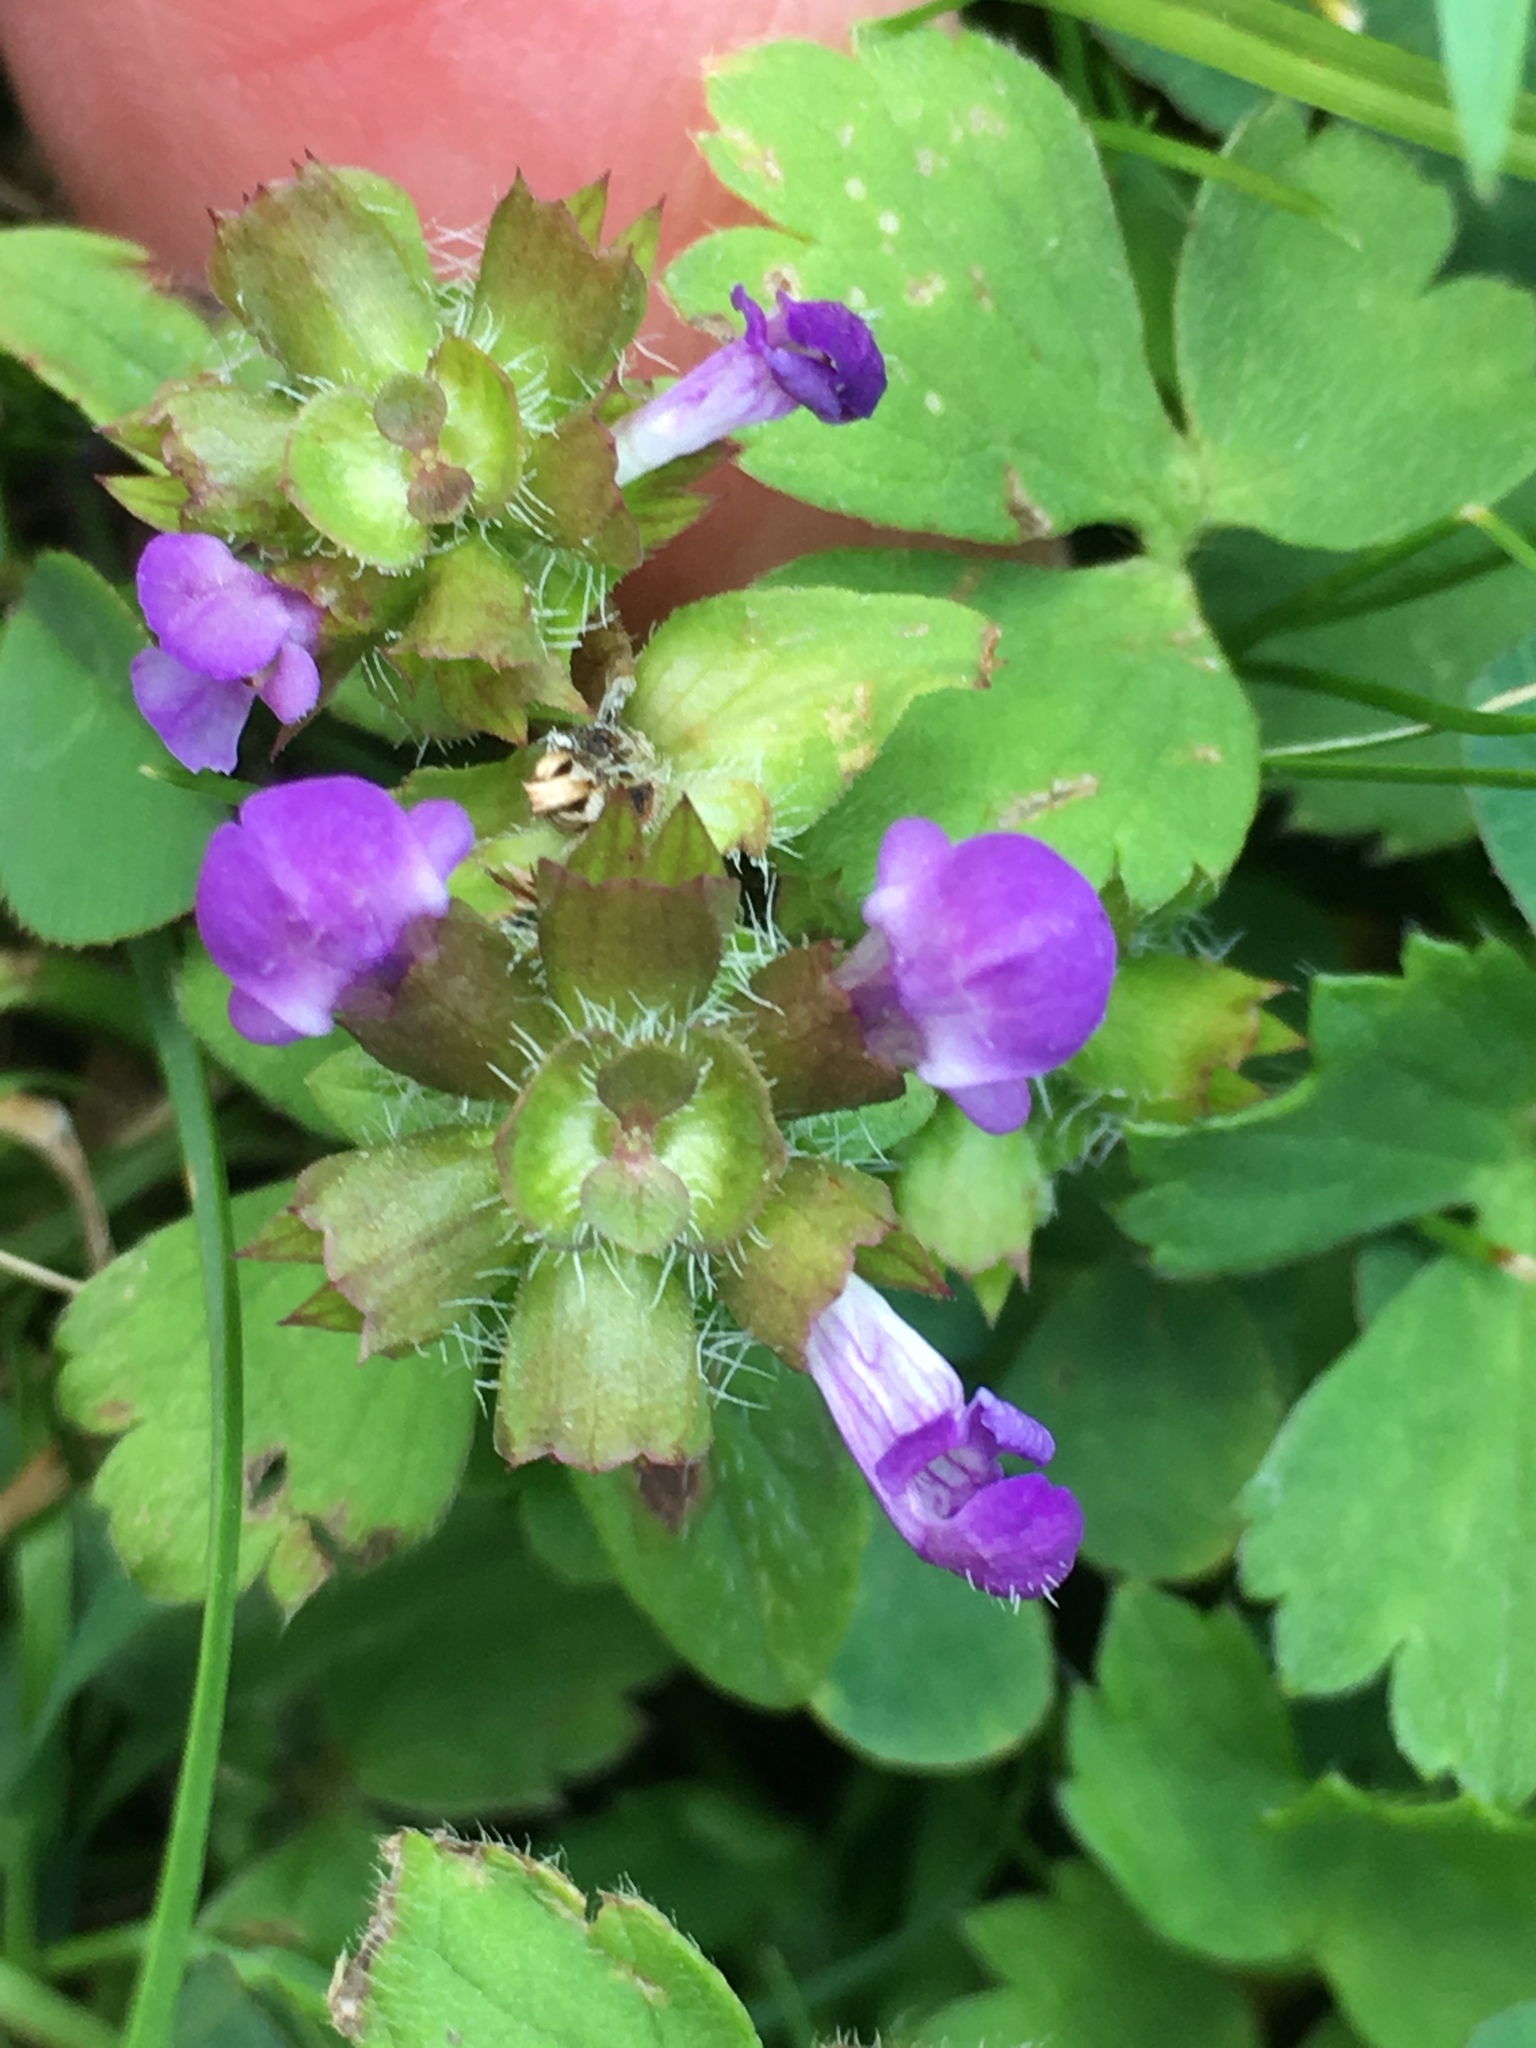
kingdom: Plantae
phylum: Tracheophyta
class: Magnoliopsida
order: Lamiales
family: Lamiaceae
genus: Prunella
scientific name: Prunella vulgaris
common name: Heal-all
